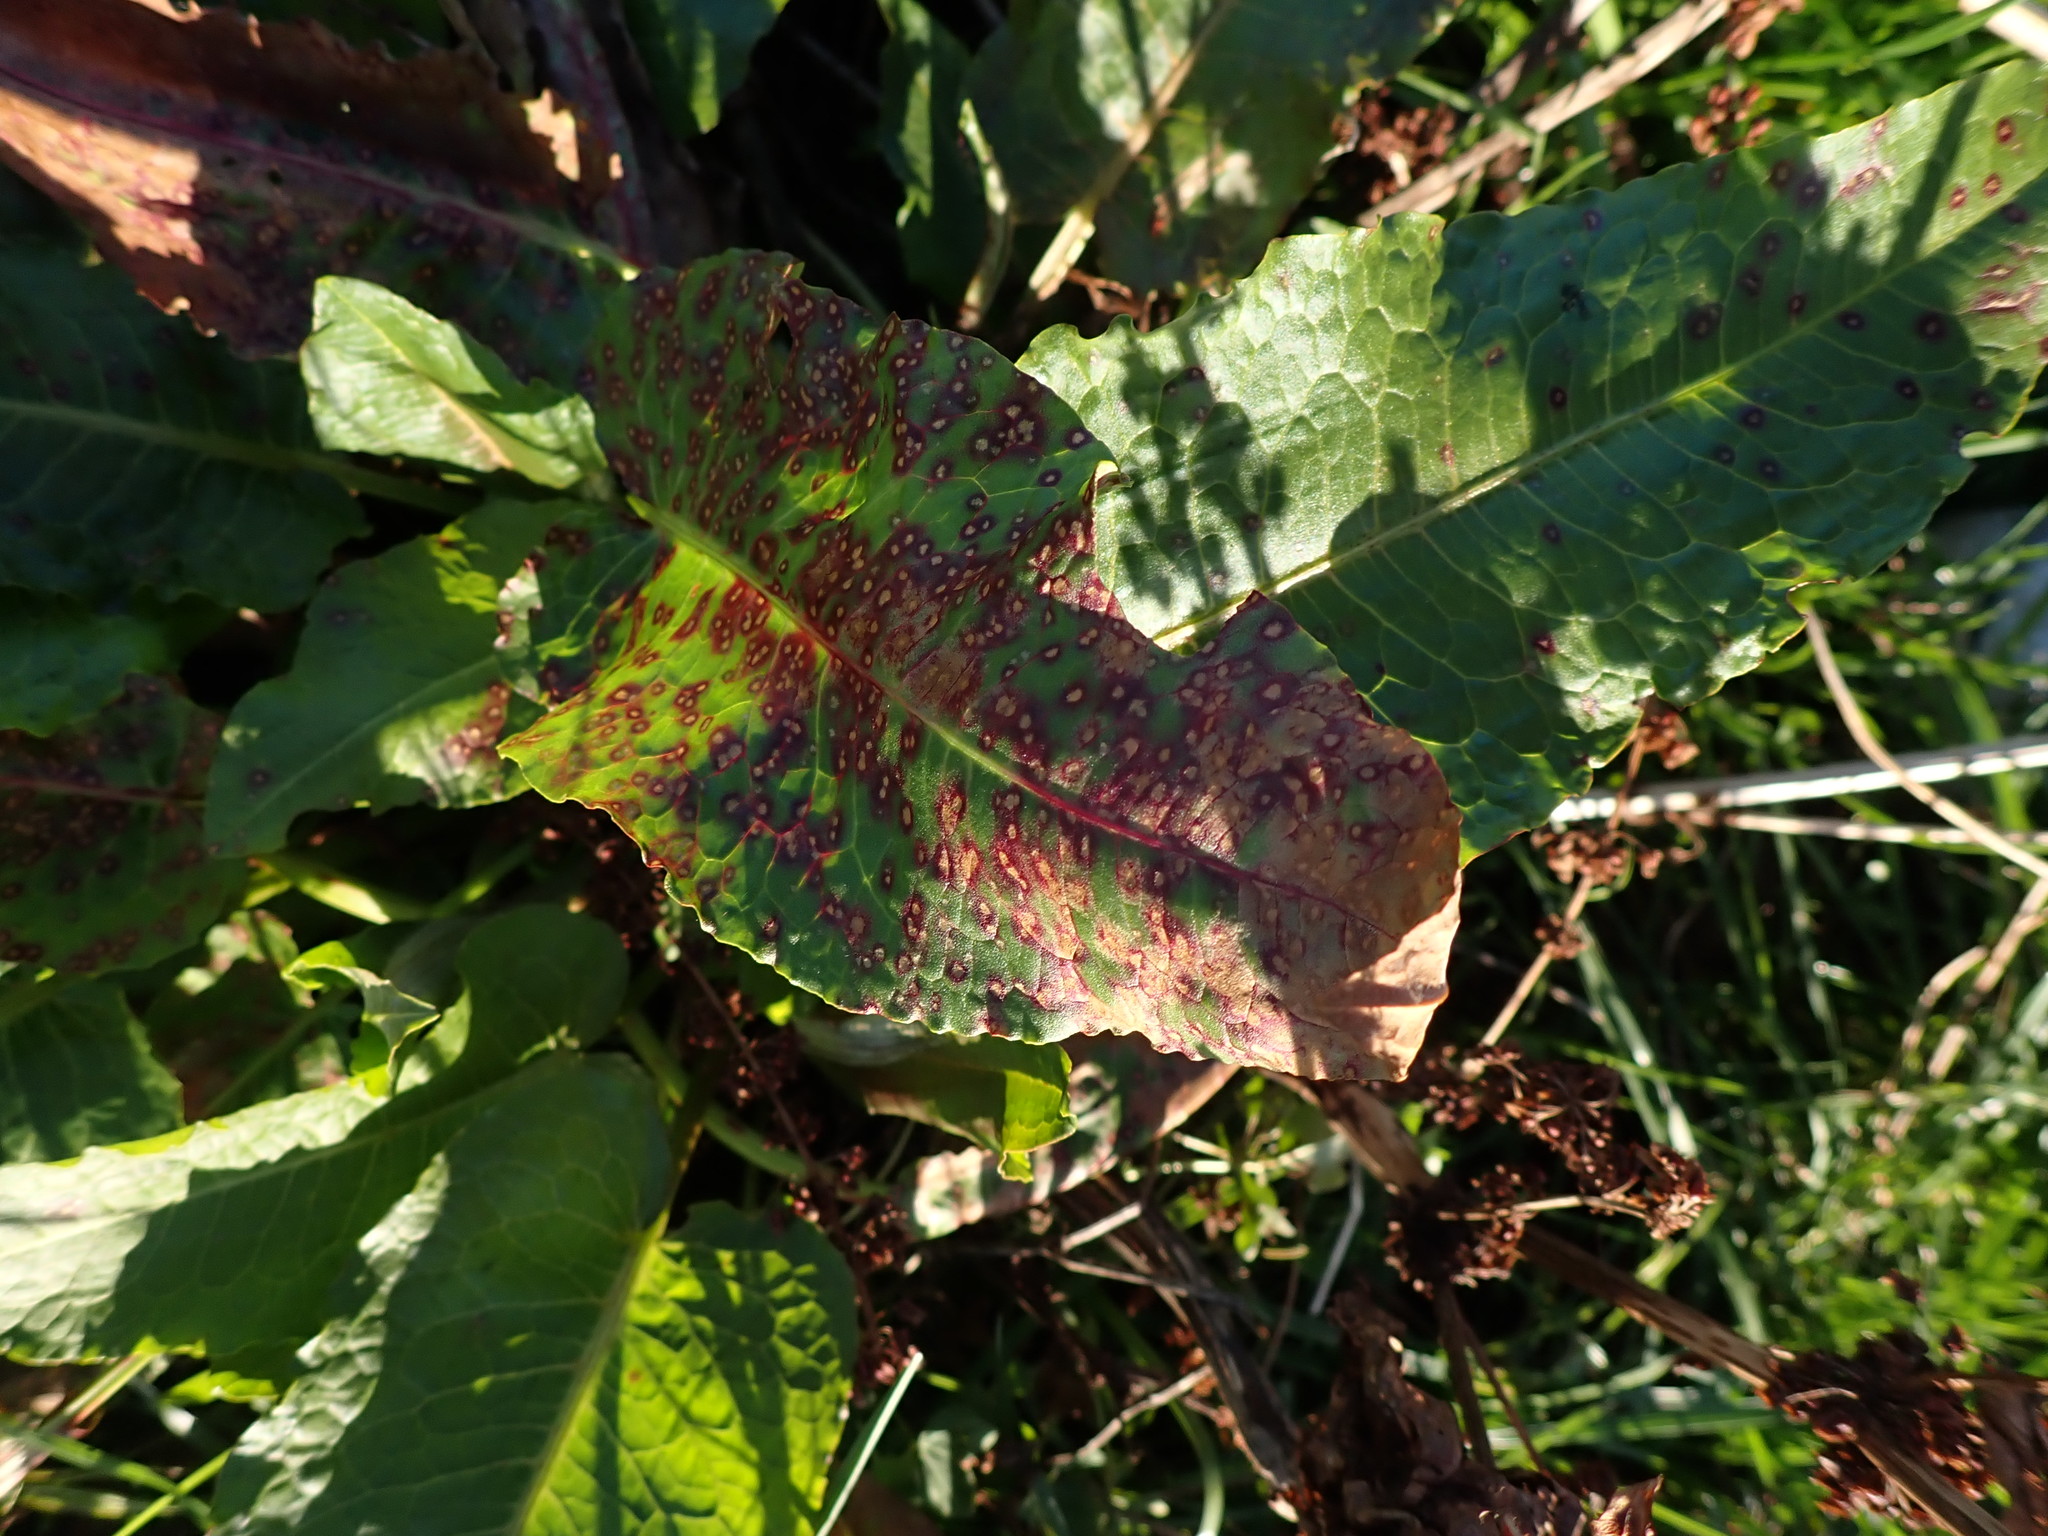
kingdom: Fungi
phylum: Ascomycota
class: Dothideomycetes
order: Mycosphaerellales
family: Mycosphaerellaceae
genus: Ramularia
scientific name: Ramularia rubella
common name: Red dock spot
